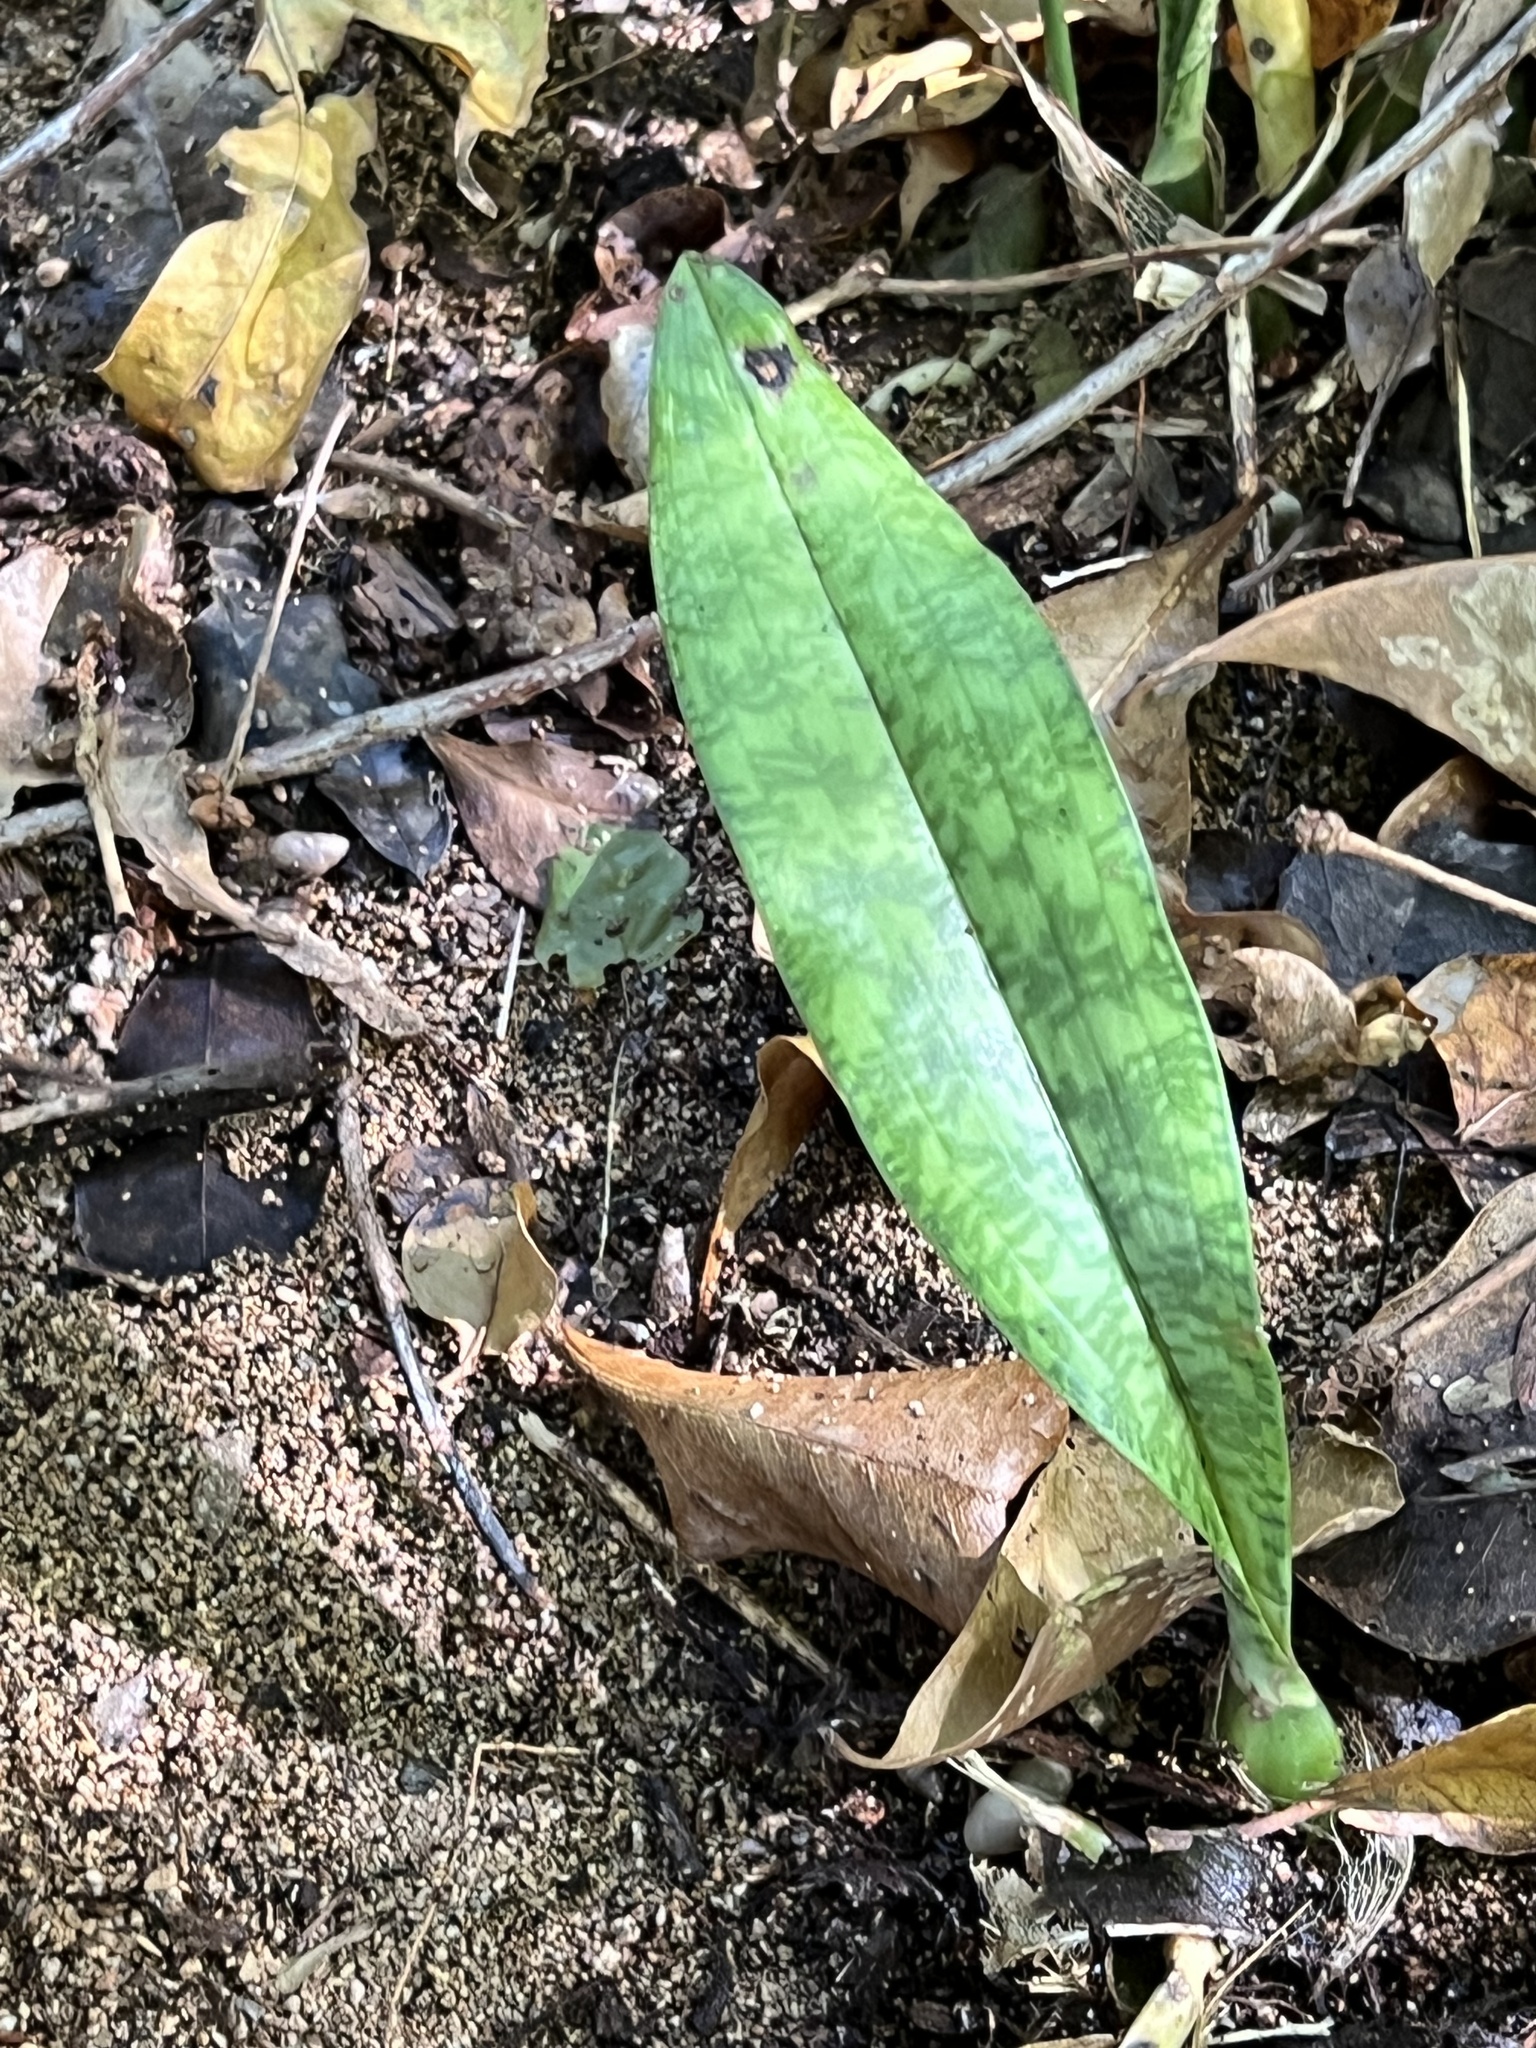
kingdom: Plantae
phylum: Tracheophyta
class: Liliopsida
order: Asparagales
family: Orchidaceae
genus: Eulophia
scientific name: Eulophia maculata
